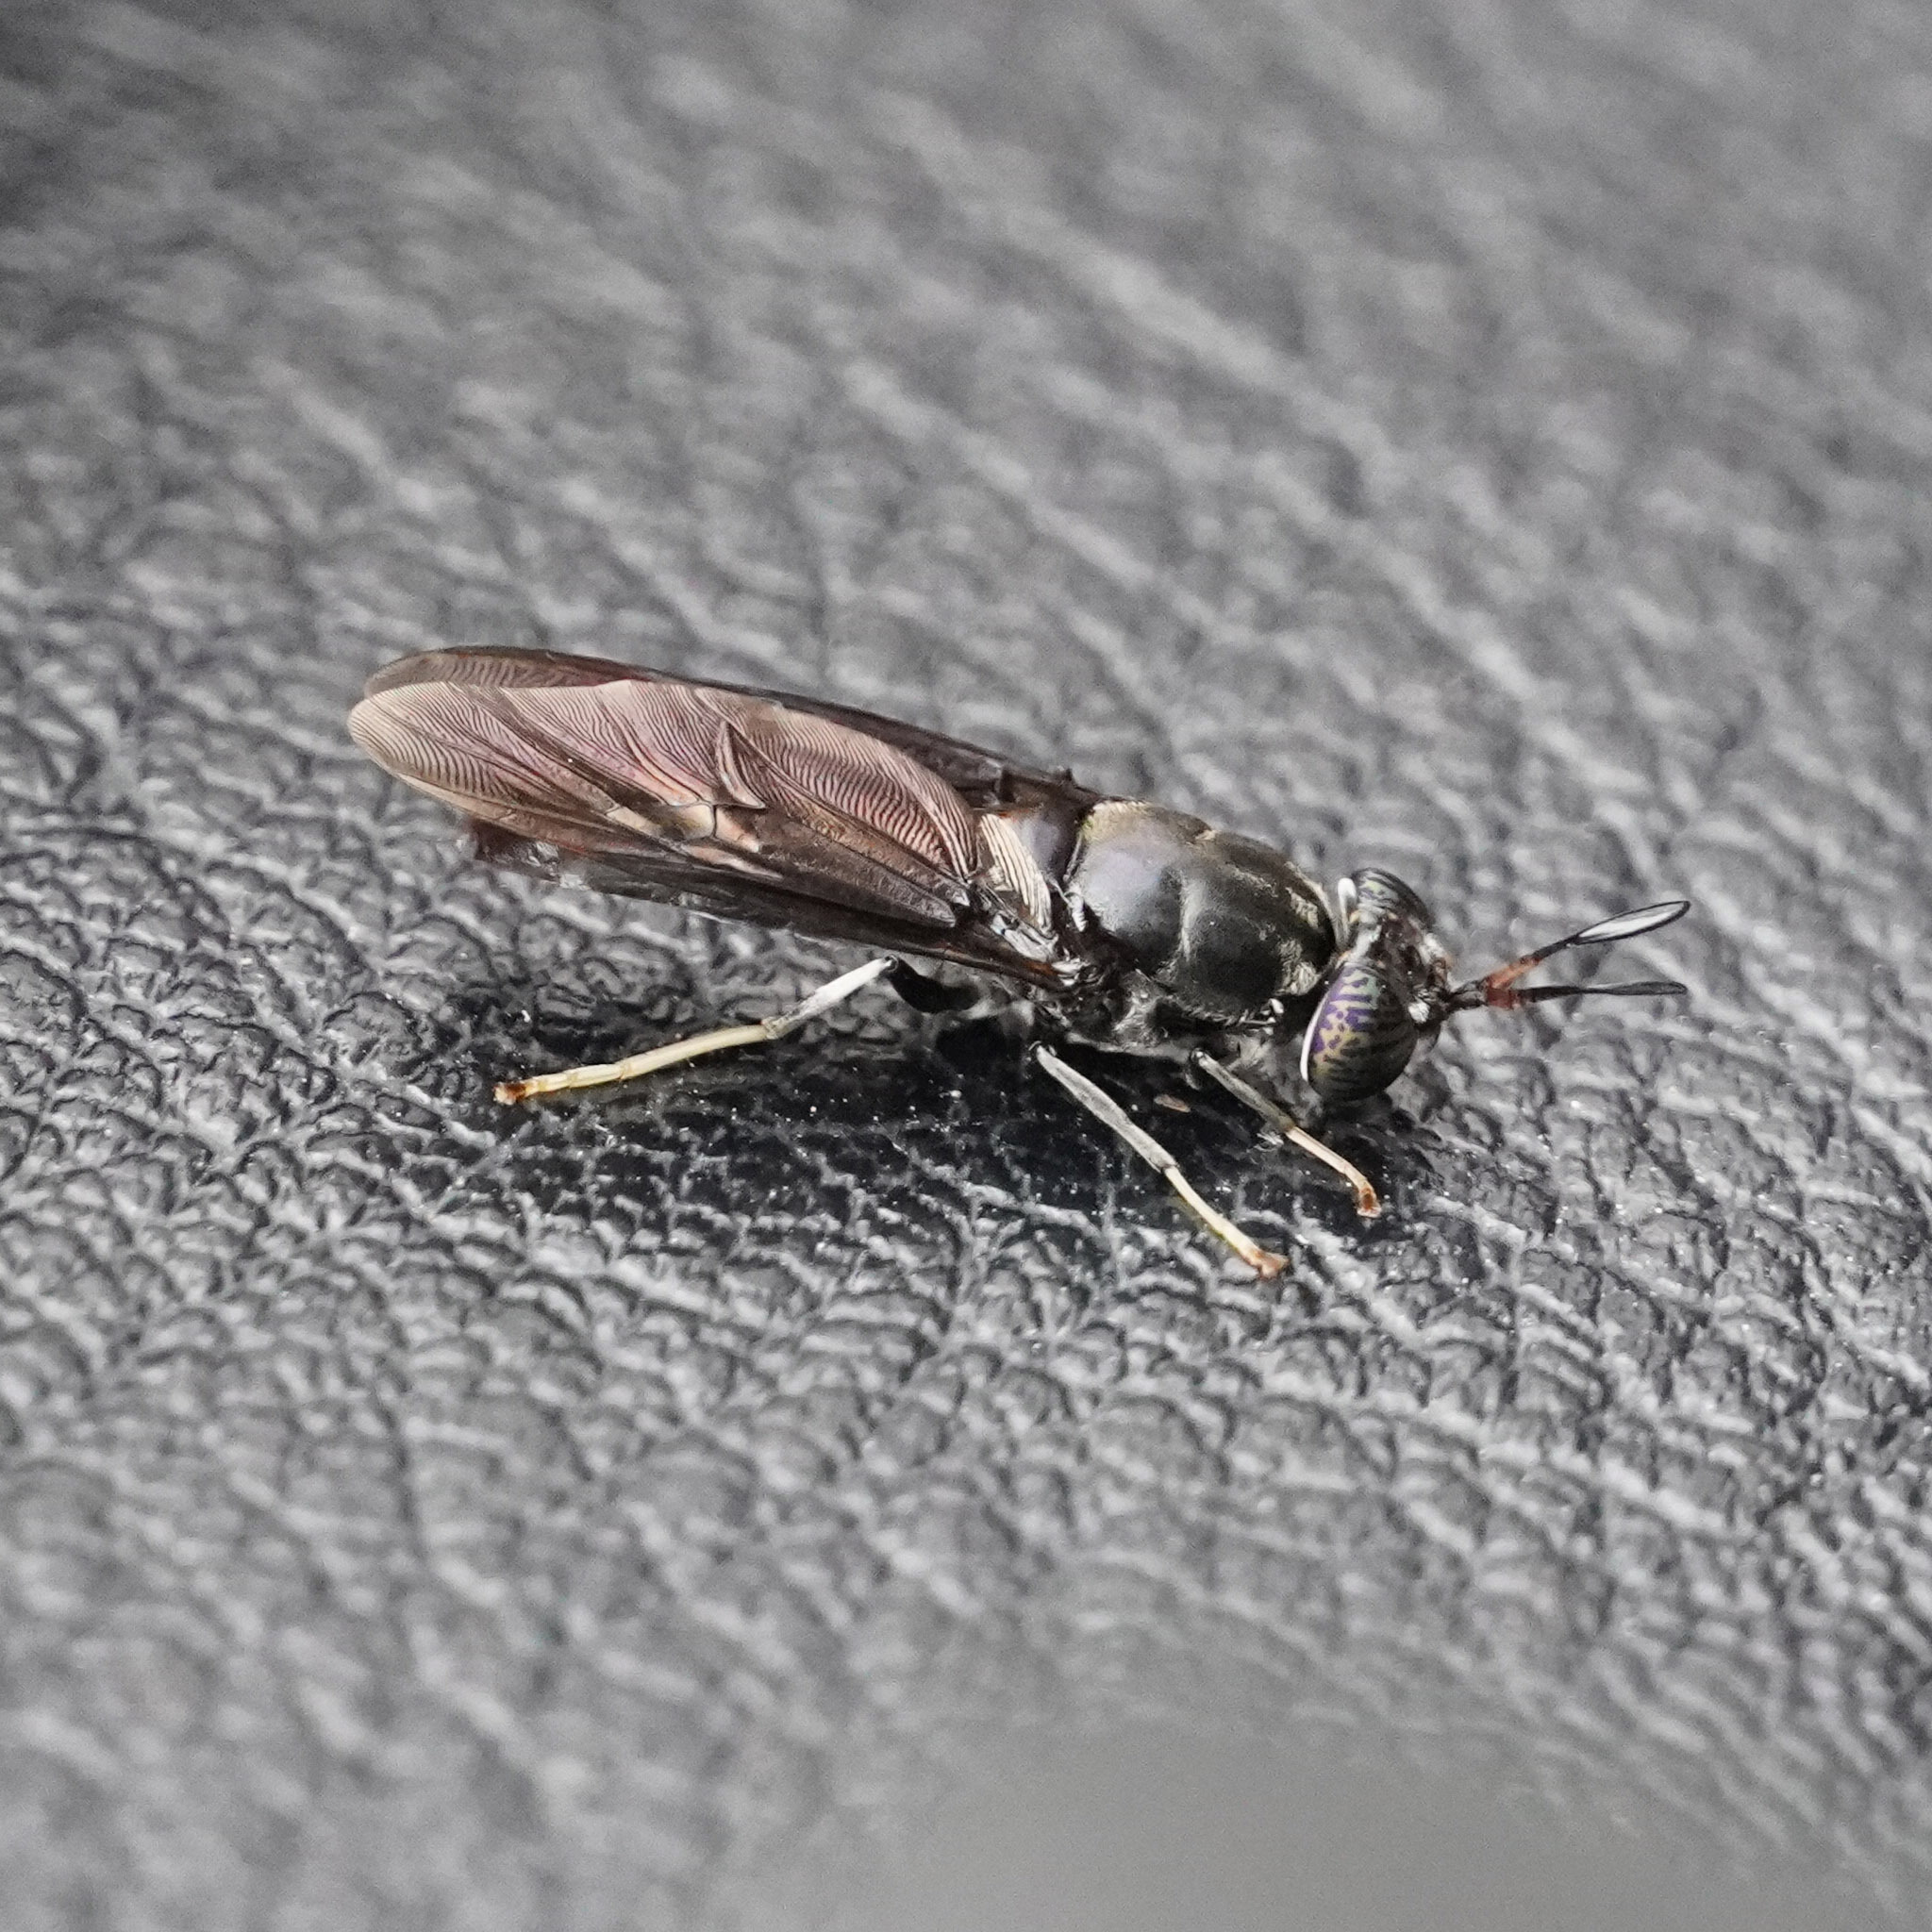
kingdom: Animalia
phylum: Arthropoda
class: Insecta
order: Diptera
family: Stratiomyidae
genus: Hermetia
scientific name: Hermetia illucens
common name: Black soldier fly
